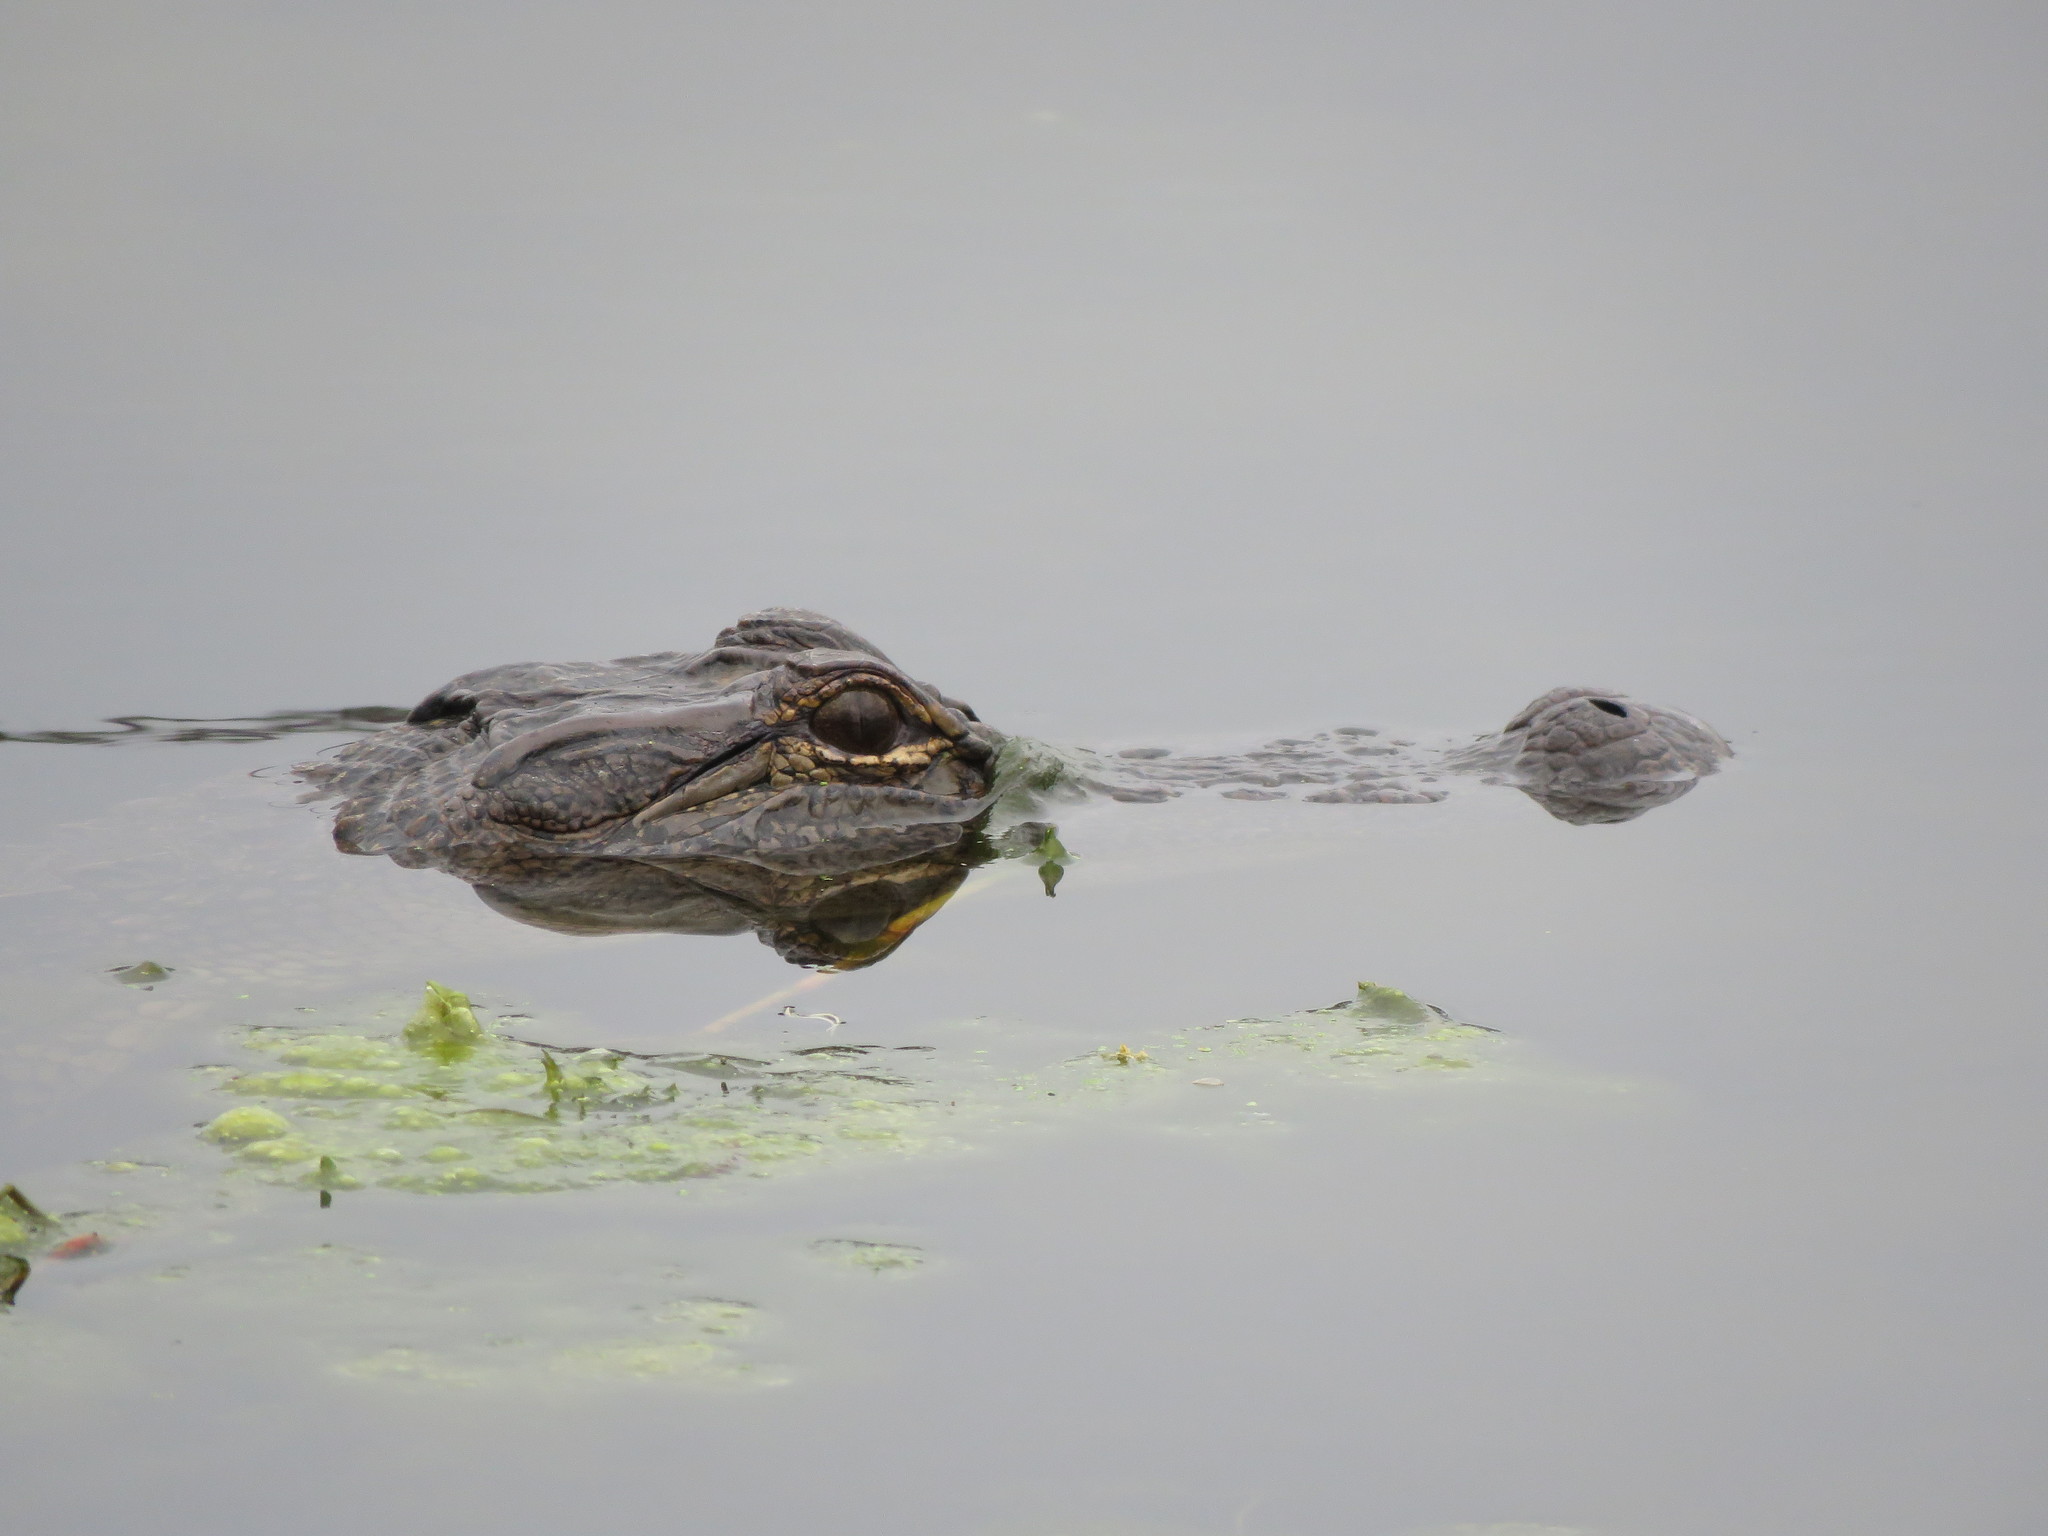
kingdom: Animalia
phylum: Chordata
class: Crocodylia
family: Alligatoridae
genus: Alligator
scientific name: Alligator mississippiensis
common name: American alligator
